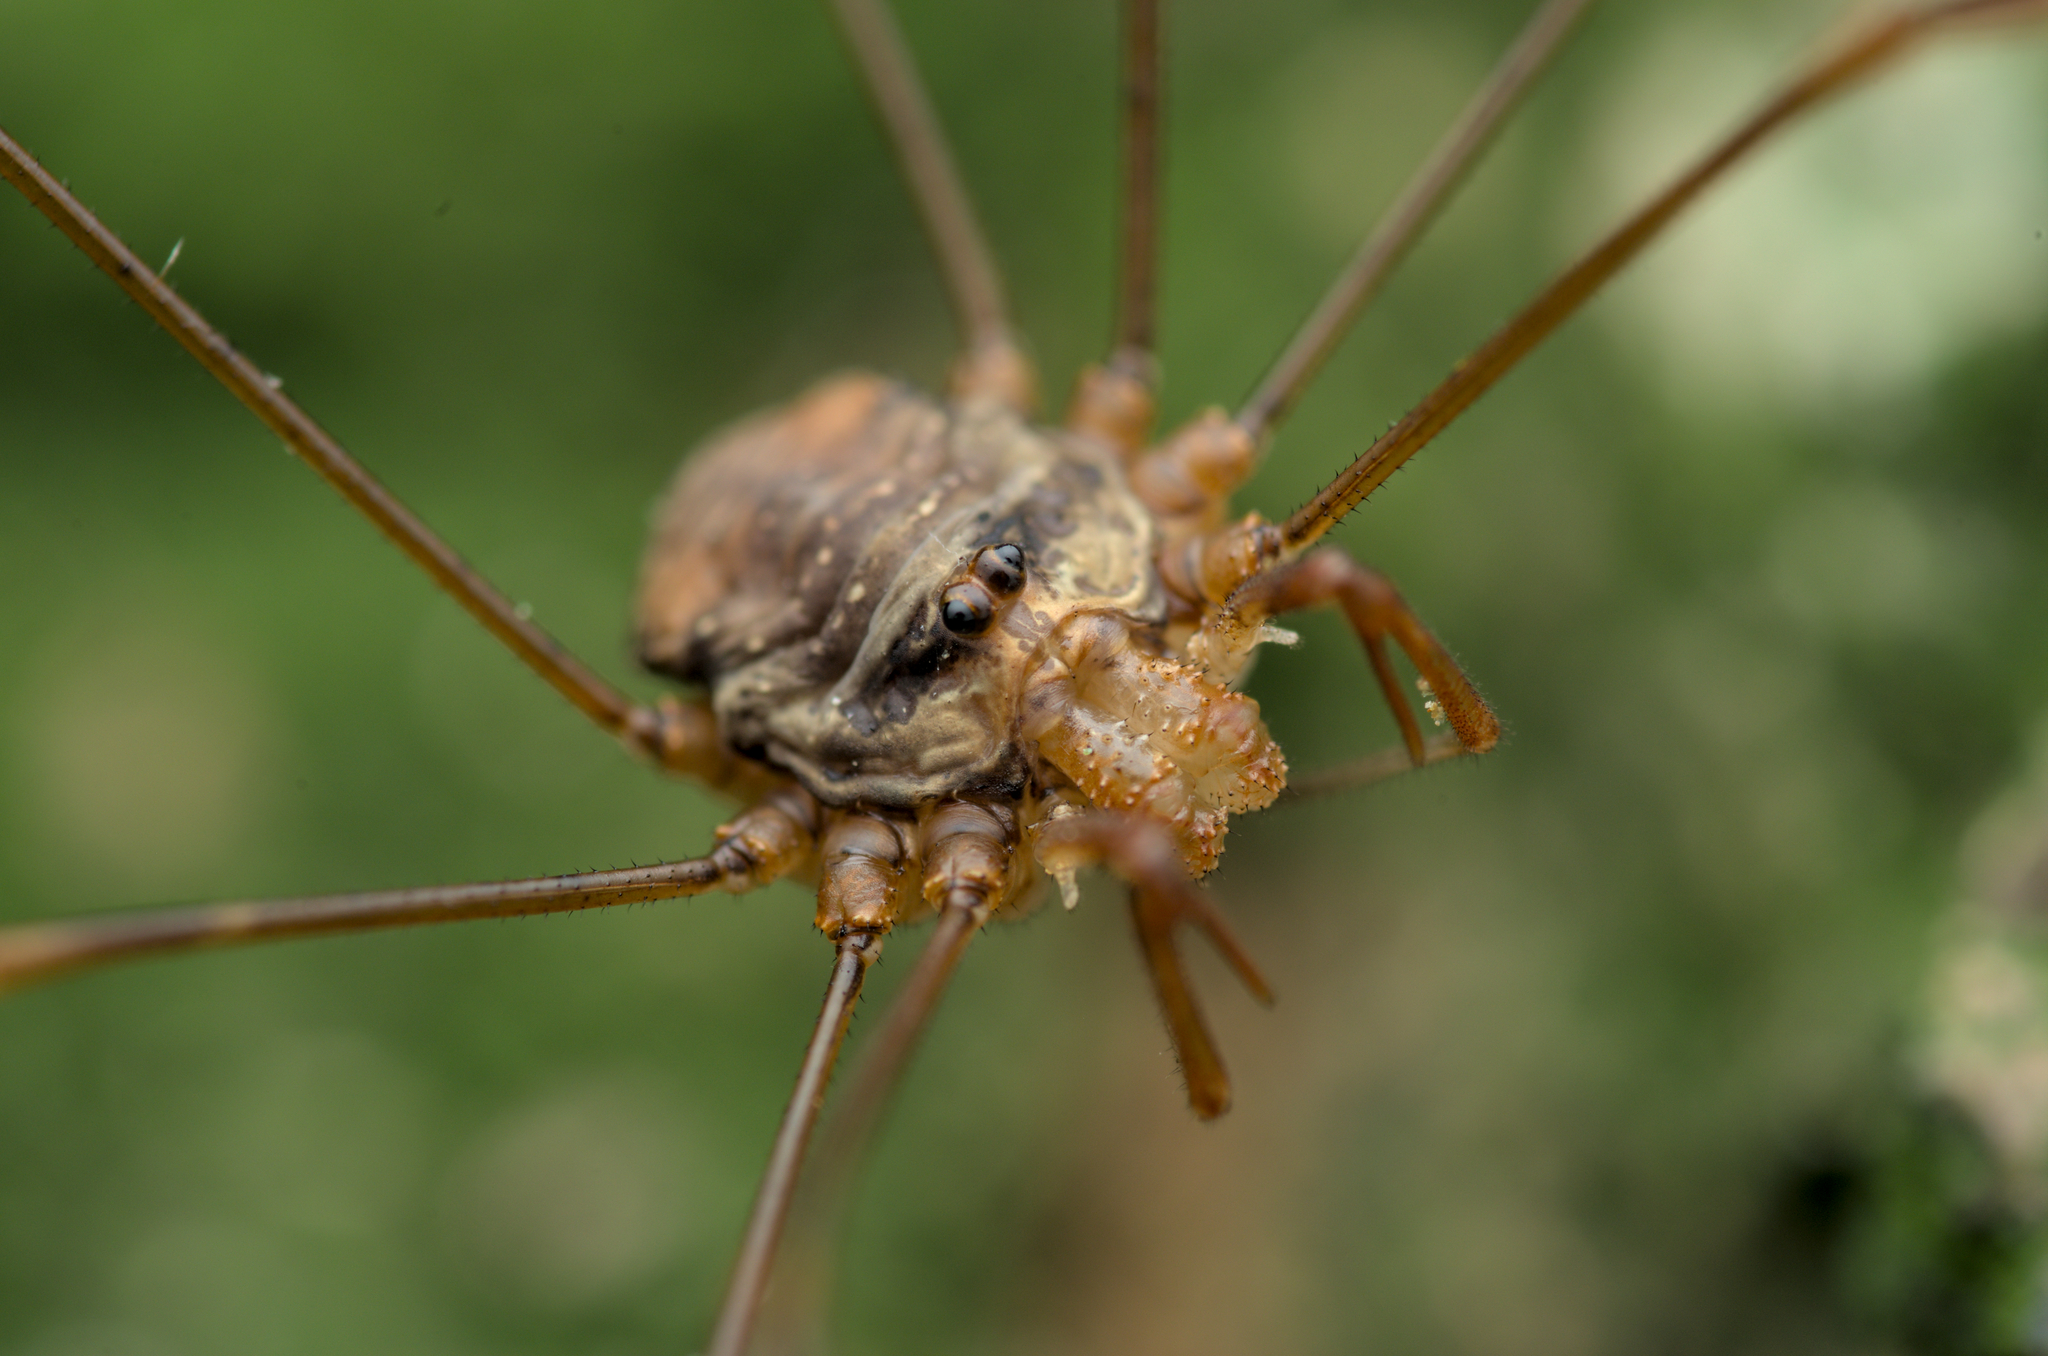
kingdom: Animalia
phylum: Arthropoda
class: Arachnida
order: Opiliones
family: Phalangiidae
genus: Dicranopalpus
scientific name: Dicranopalpus ramosus
